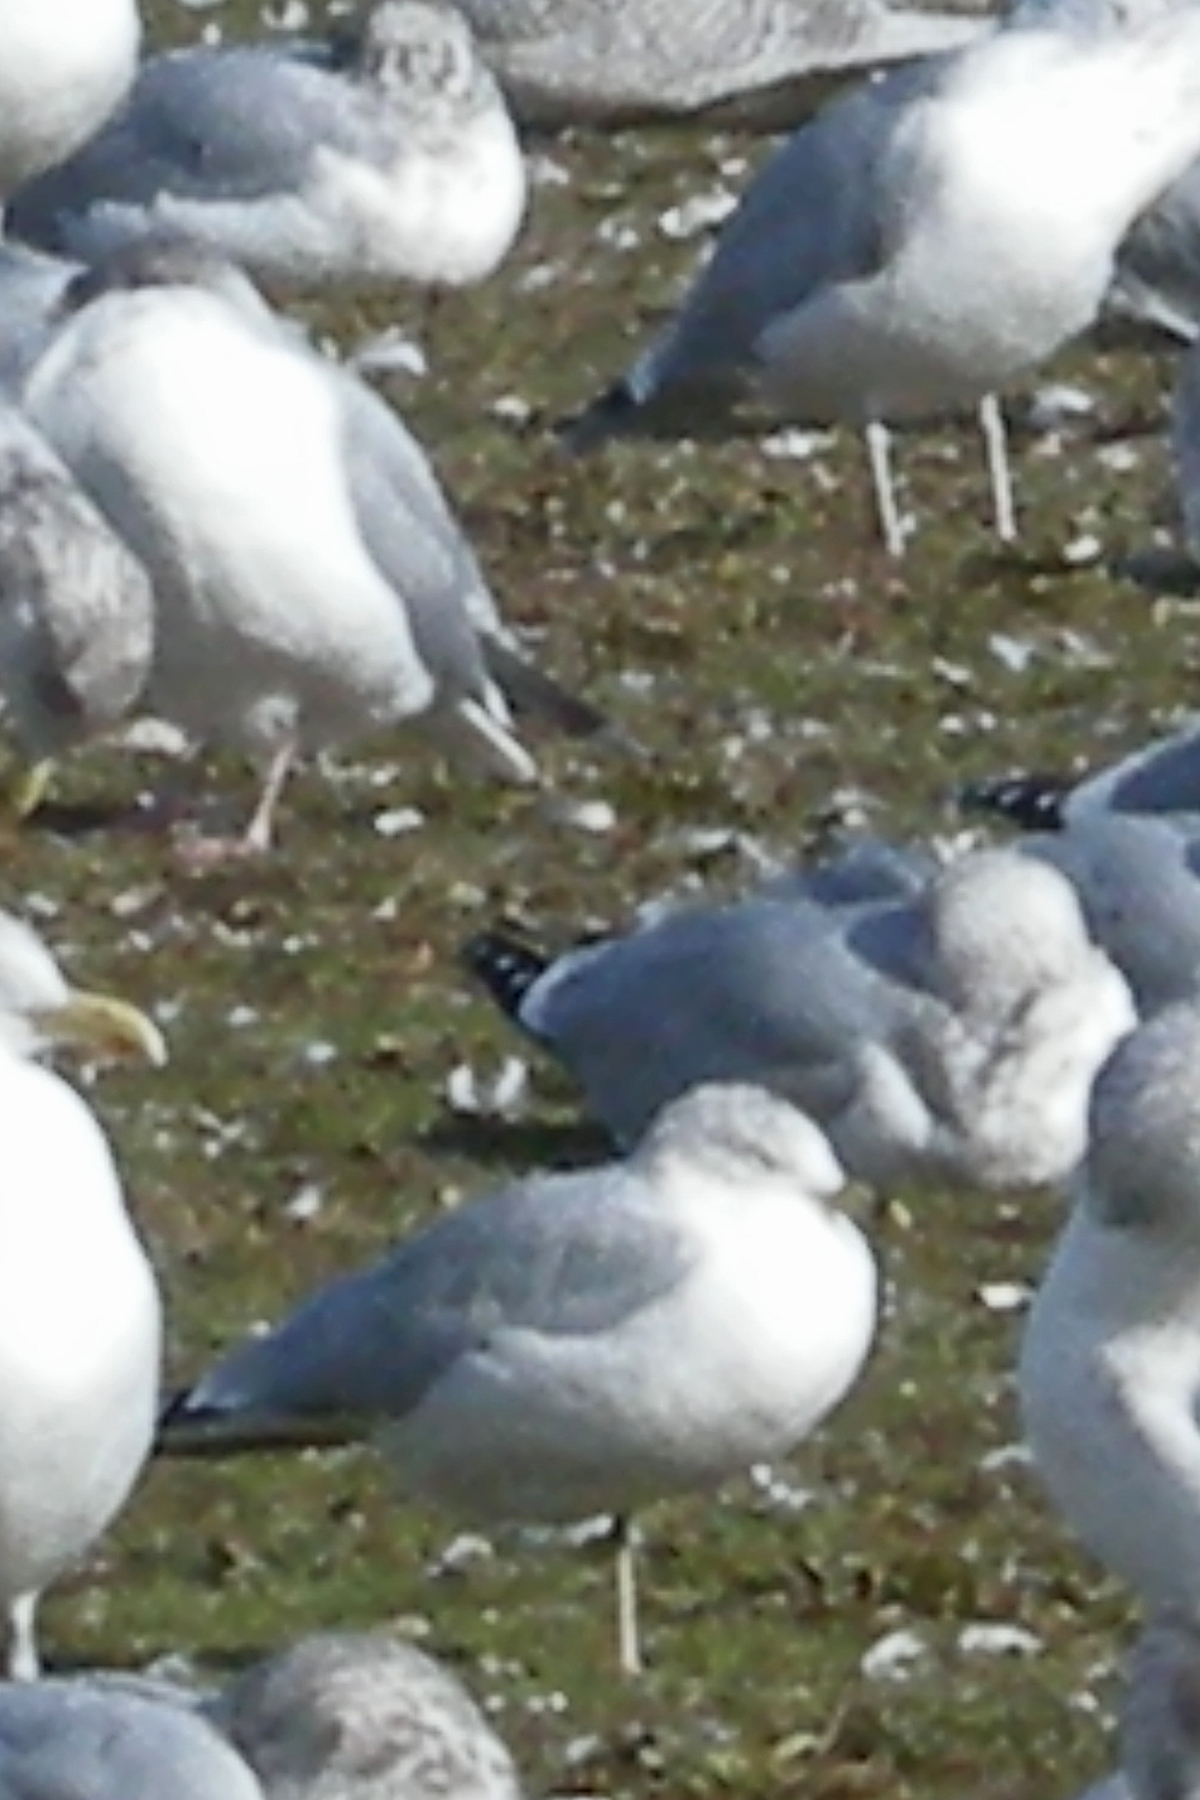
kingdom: Animalia
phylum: Chordata
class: Aves
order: Charadriiformes
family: Laridae
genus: Larus
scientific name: Larus delawarensis
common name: Ring-billed gull
